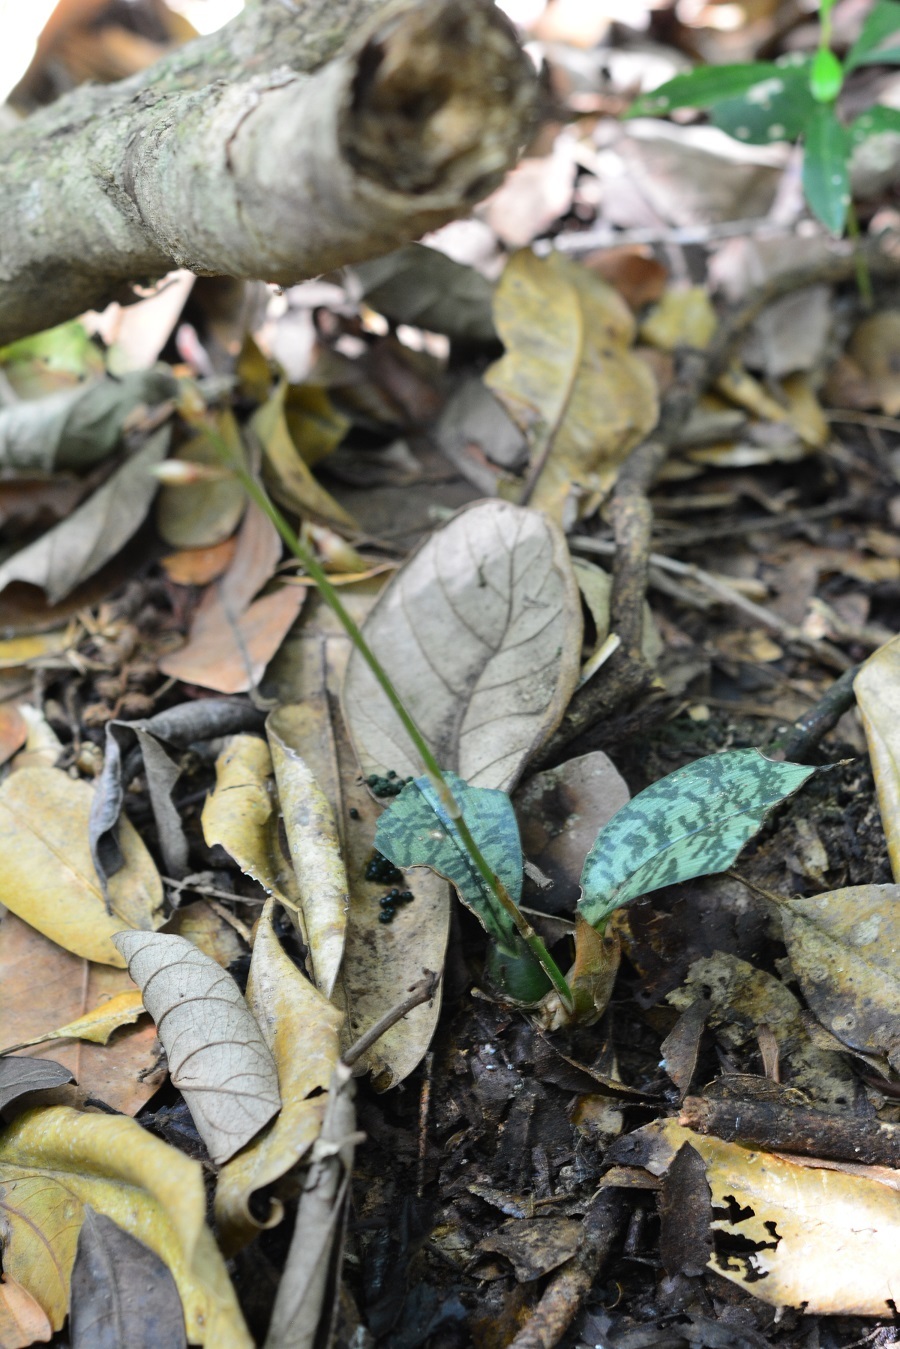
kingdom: Plantae
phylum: Tracheophyta
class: Liliopsida
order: Asparagales
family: Orchidaceae
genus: Eulophia
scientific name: Eulophia maculata
